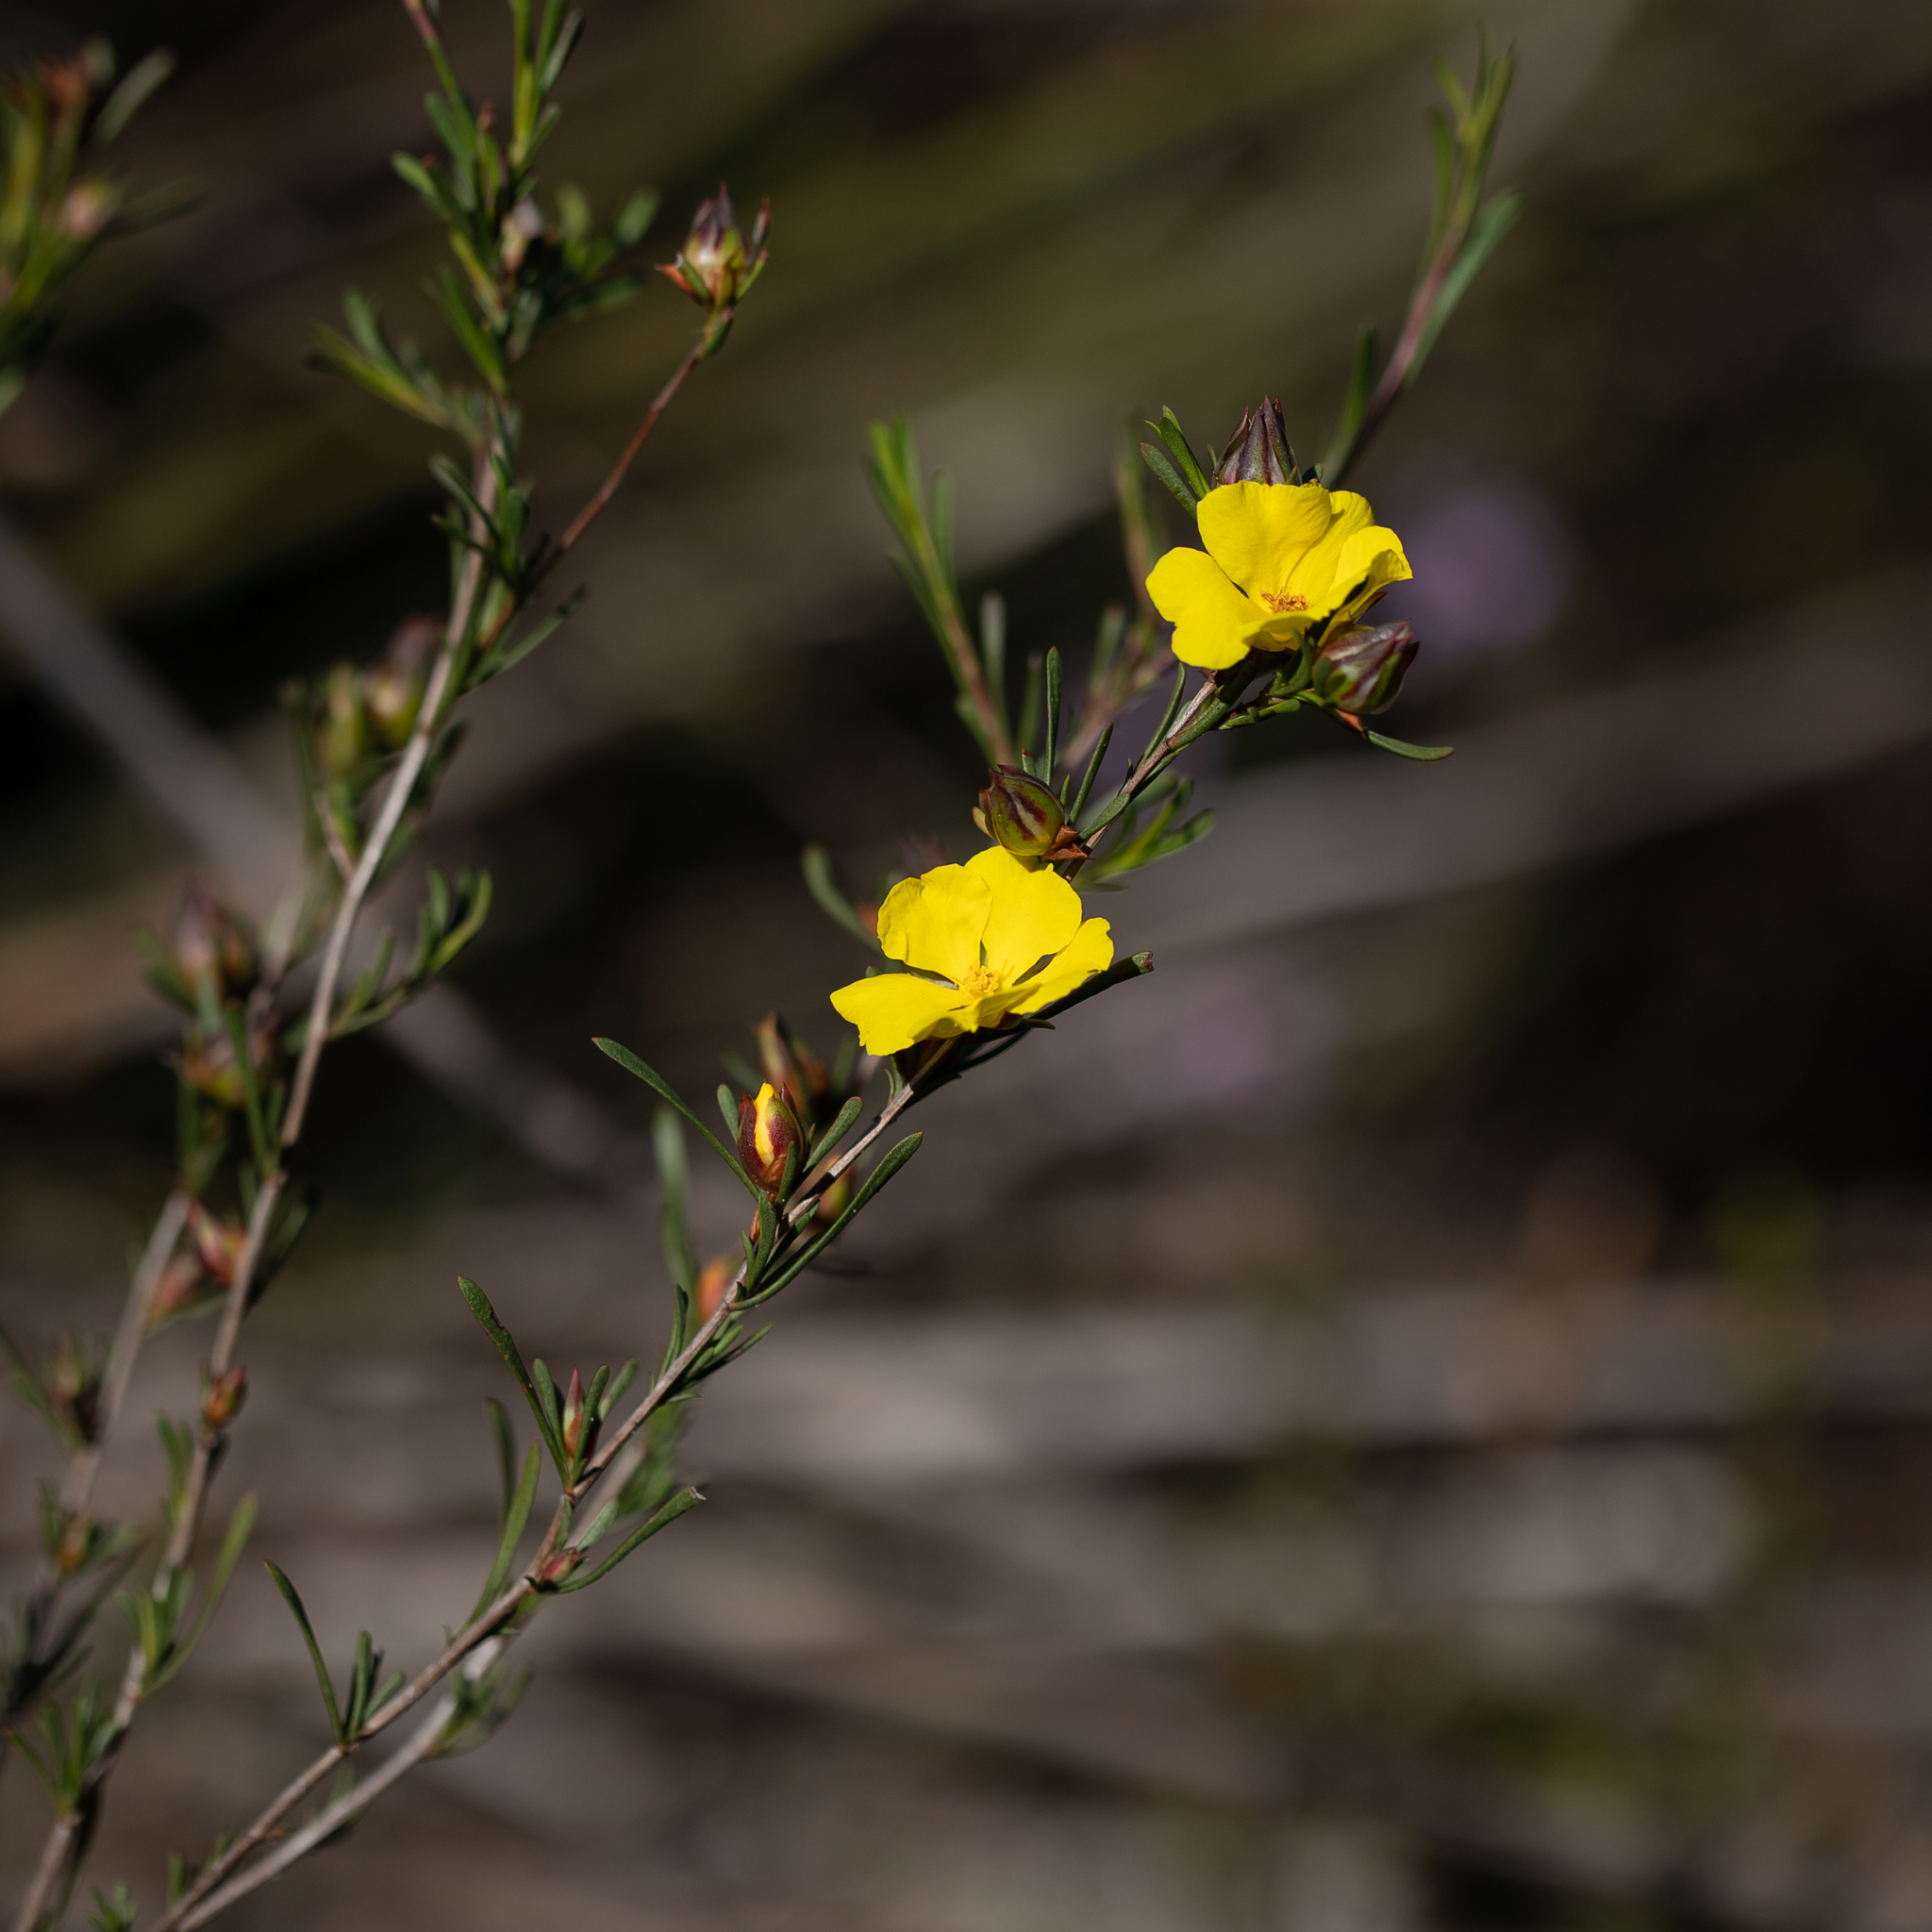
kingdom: Plantae
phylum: Tracheophyta
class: Magnoliopsida
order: Dilleniales
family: Dilleniaceae
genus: Hibbertia
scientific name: Hibbertia virgata
